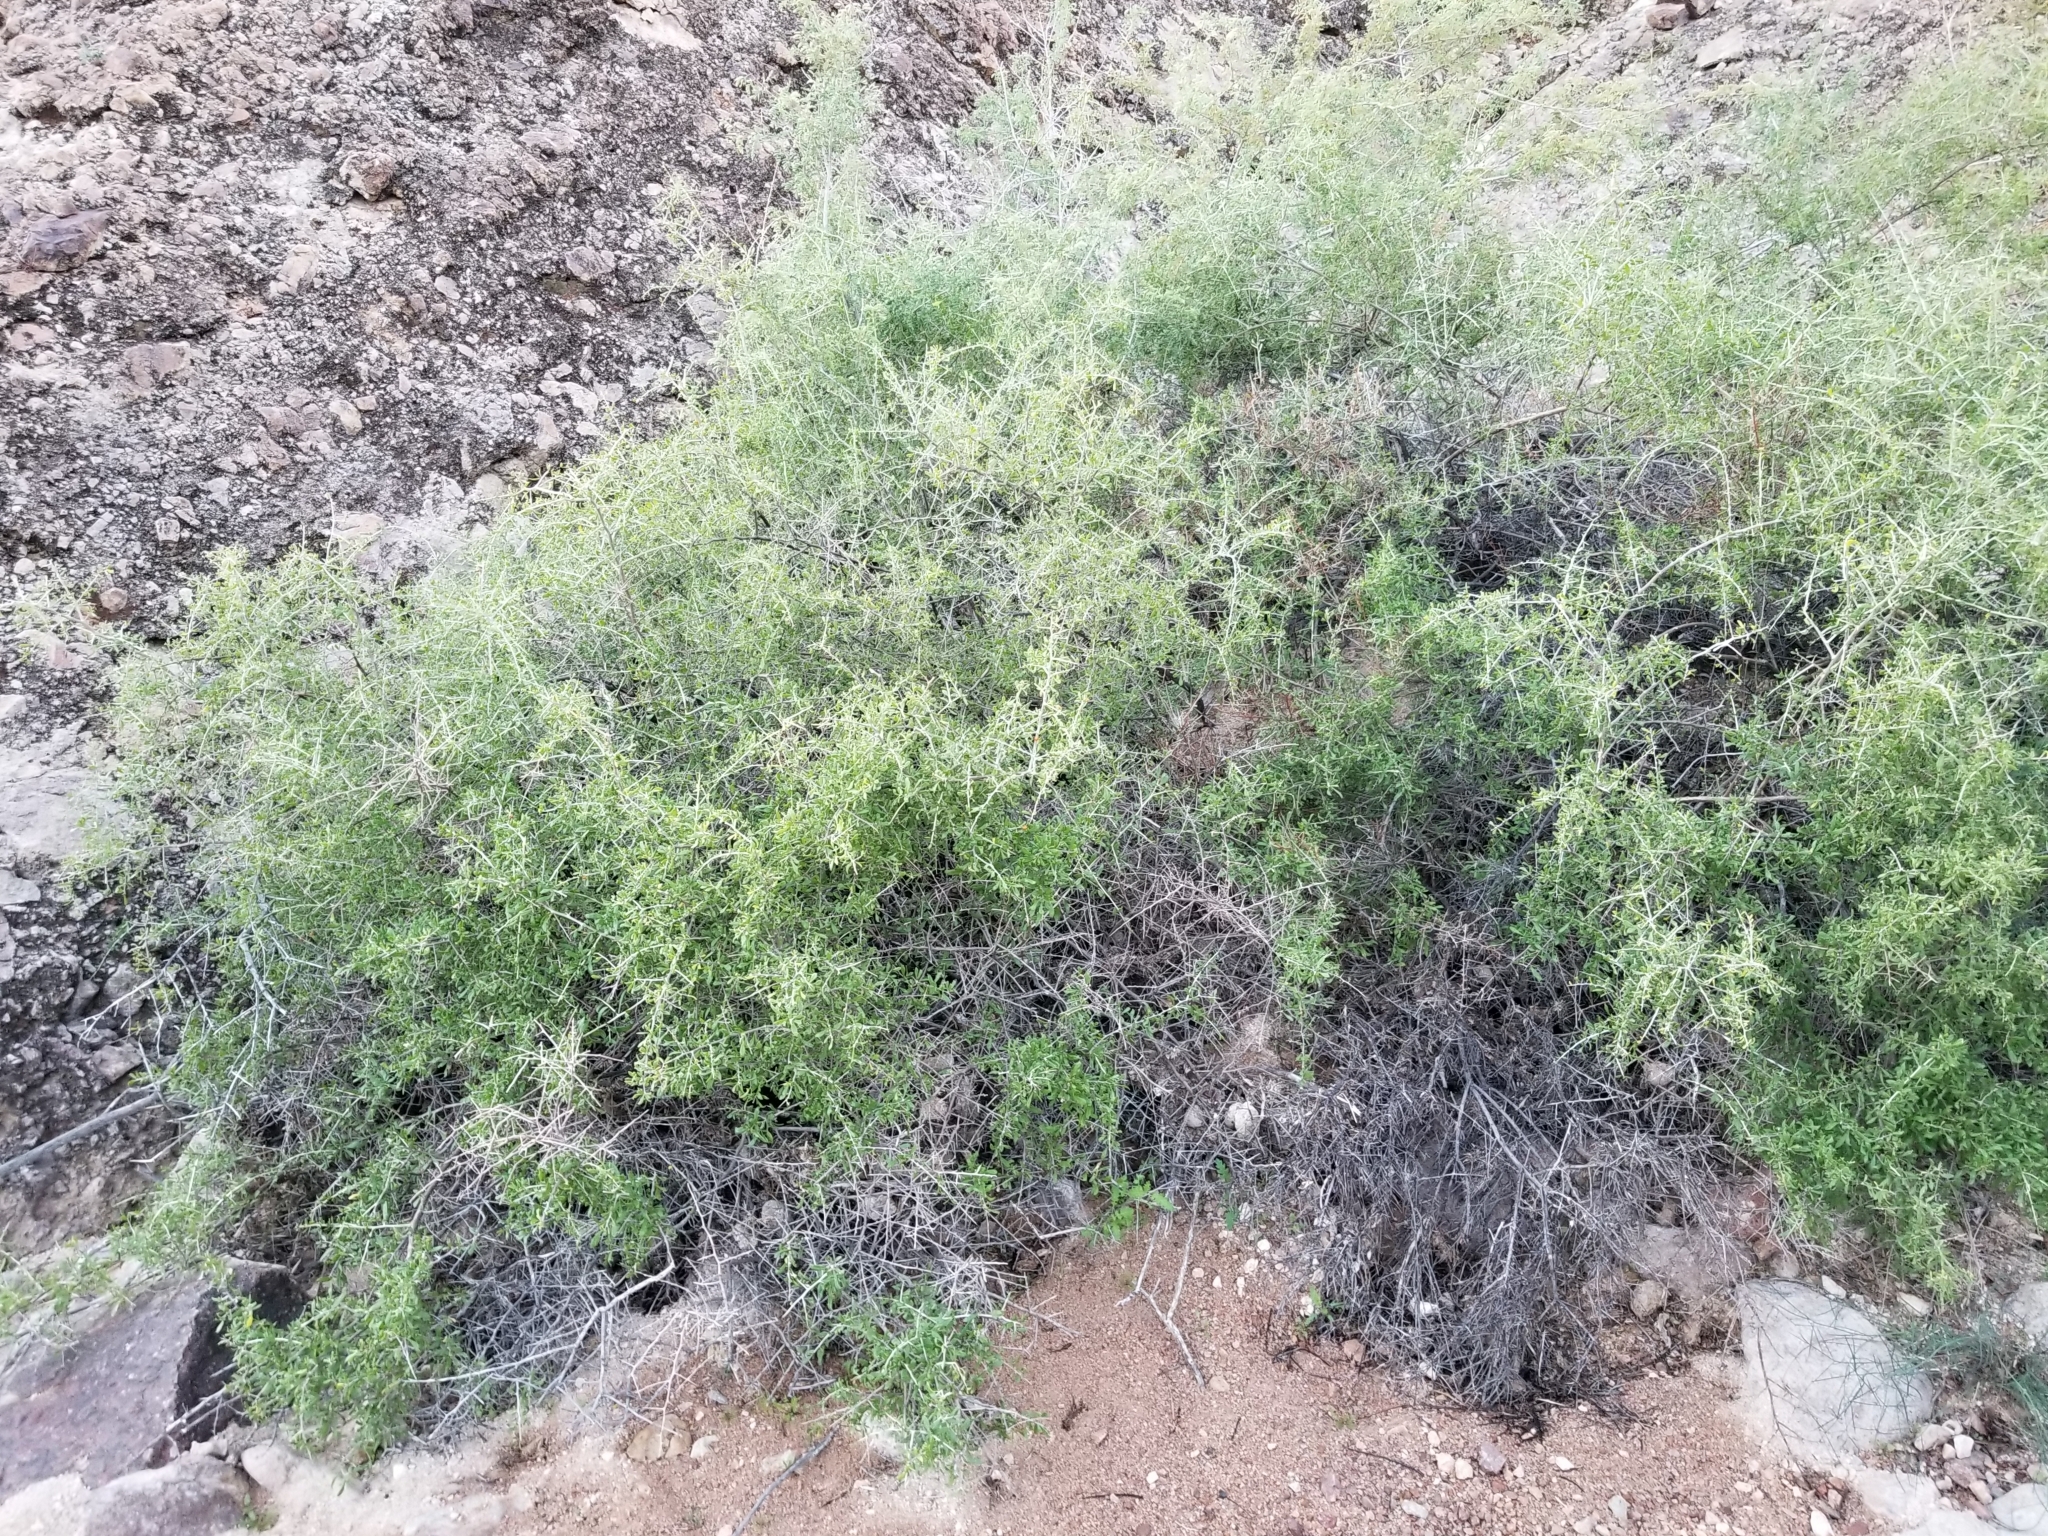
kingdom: Plantae
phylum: Tracheophyta
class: Magnoliopsida
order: Solanales
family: Solanaceae
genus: Lycium
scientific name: Lycium andersonii
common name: Water-jacket
